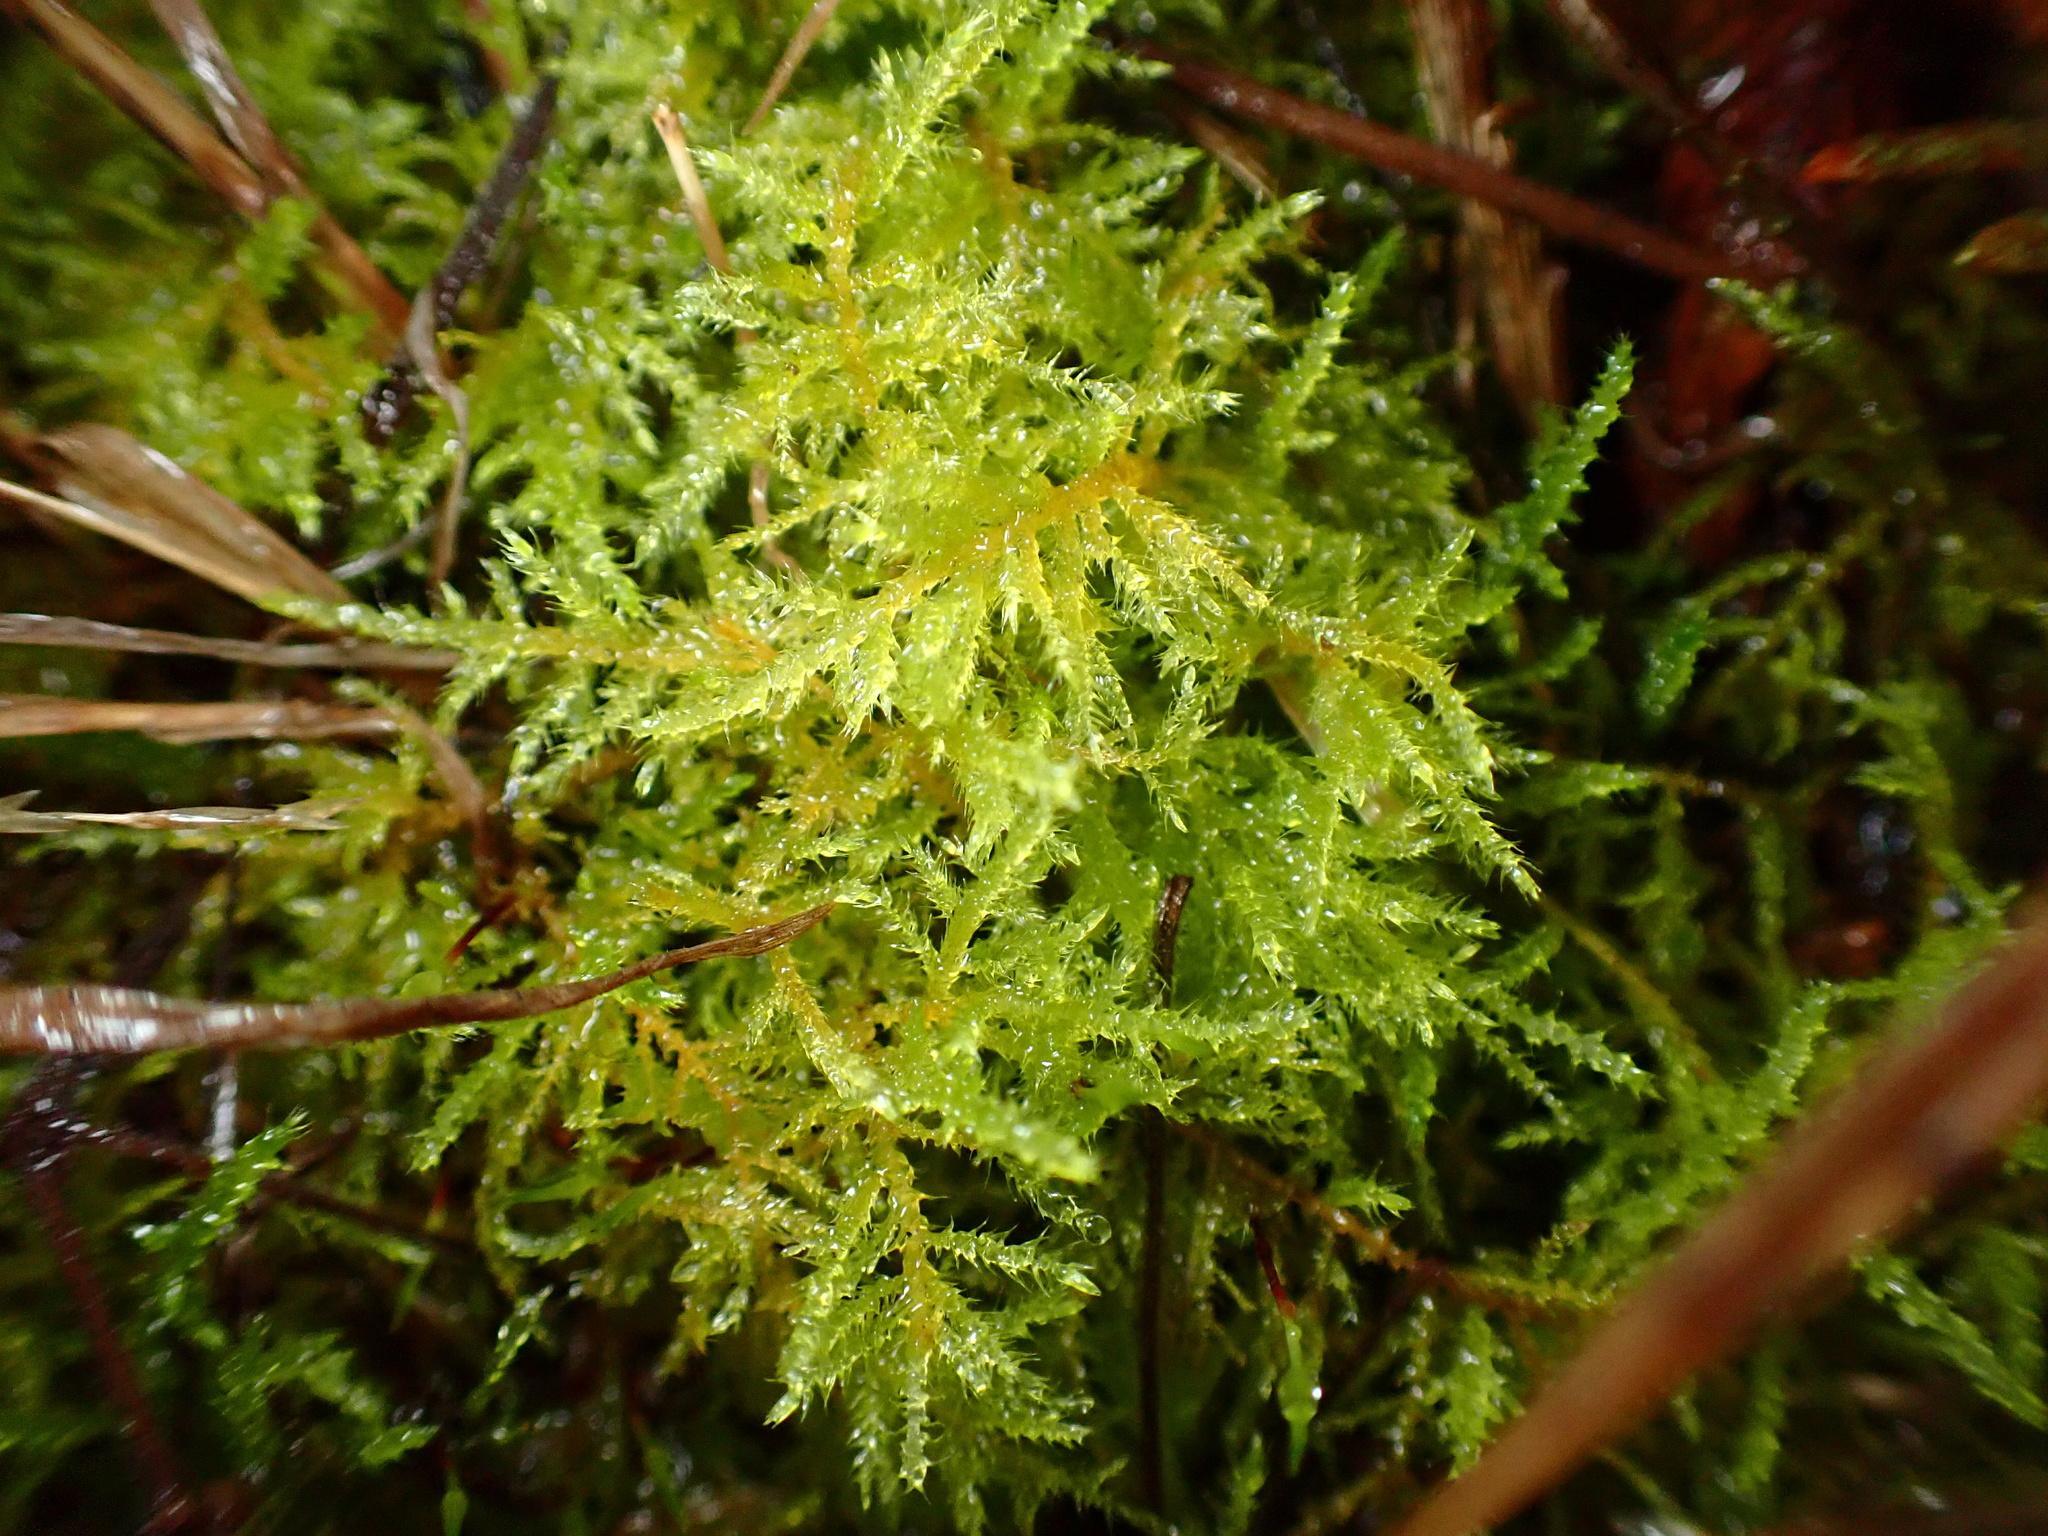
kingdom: Plantae
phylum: Bryophyta
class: Bryopsida
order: Hypnales
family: Brachytheciaceae
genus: Kindbergia
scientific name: Kindbergia praelonga
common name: Slender beaked moss
